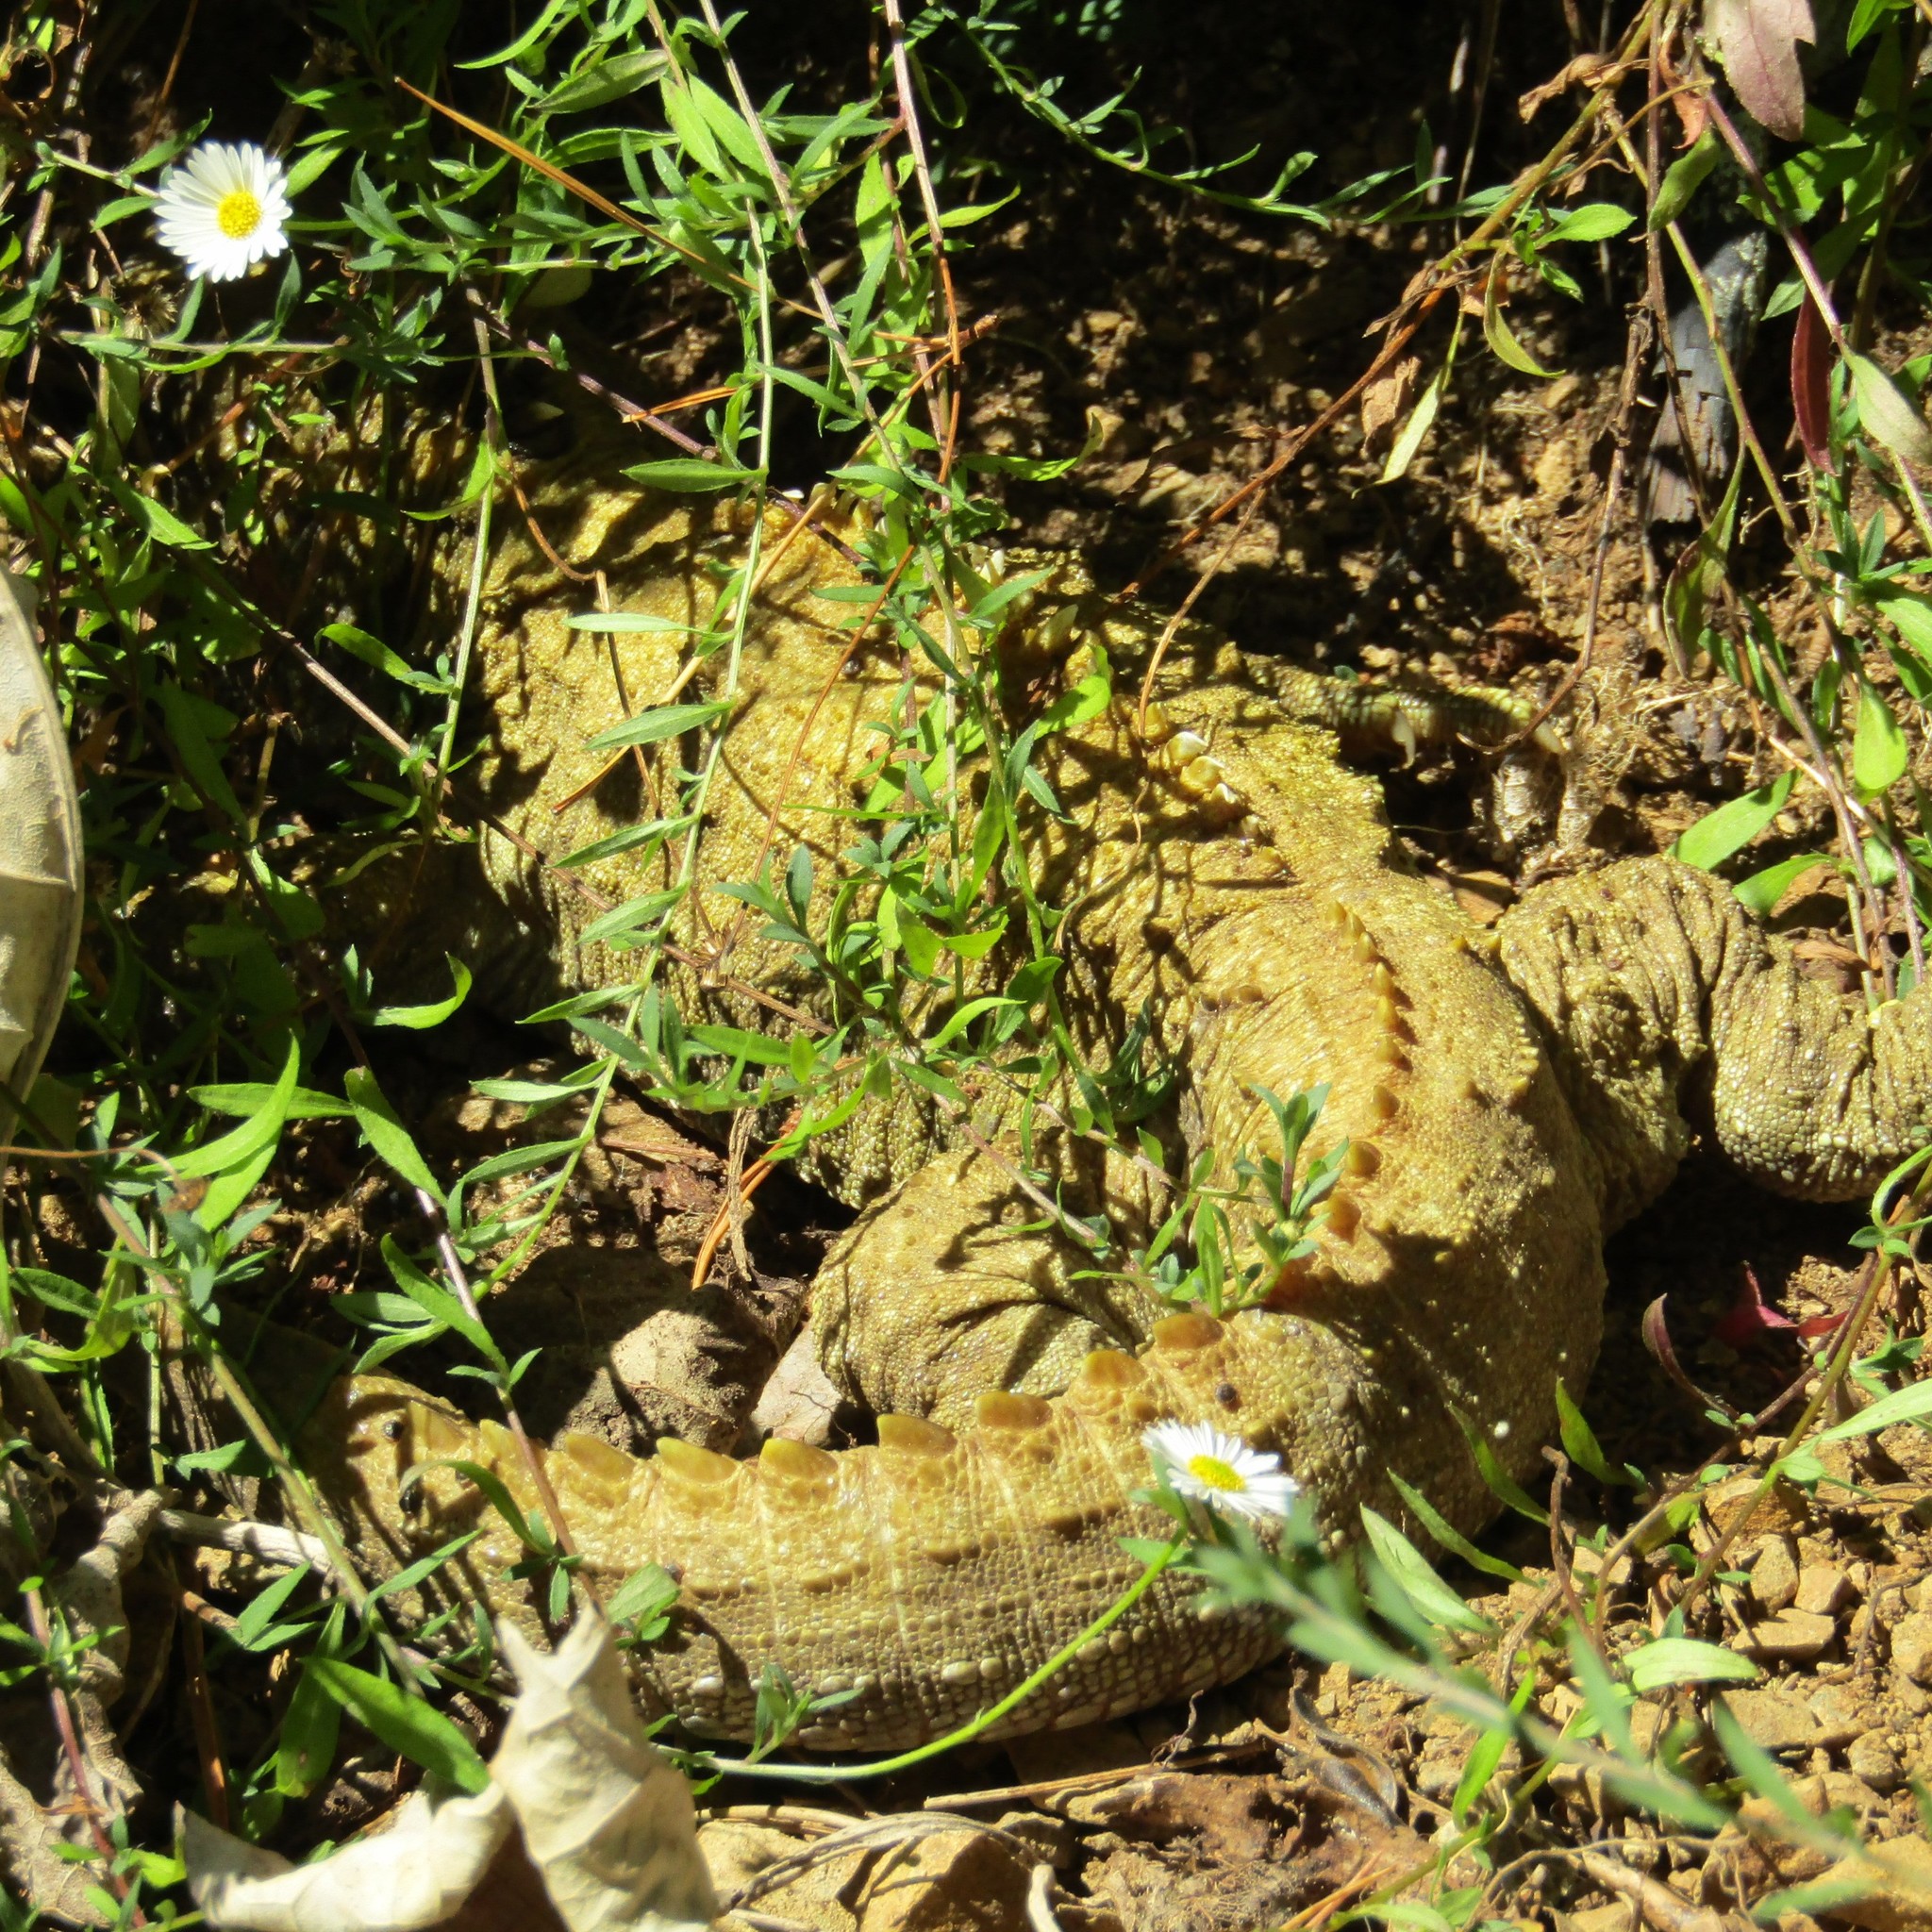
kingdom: Animalia
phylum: Chordata
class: Sphenodontia
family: Sphenodontidae
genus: Sphenodon
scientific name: Sphenodon punctatus
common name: Tuatara
